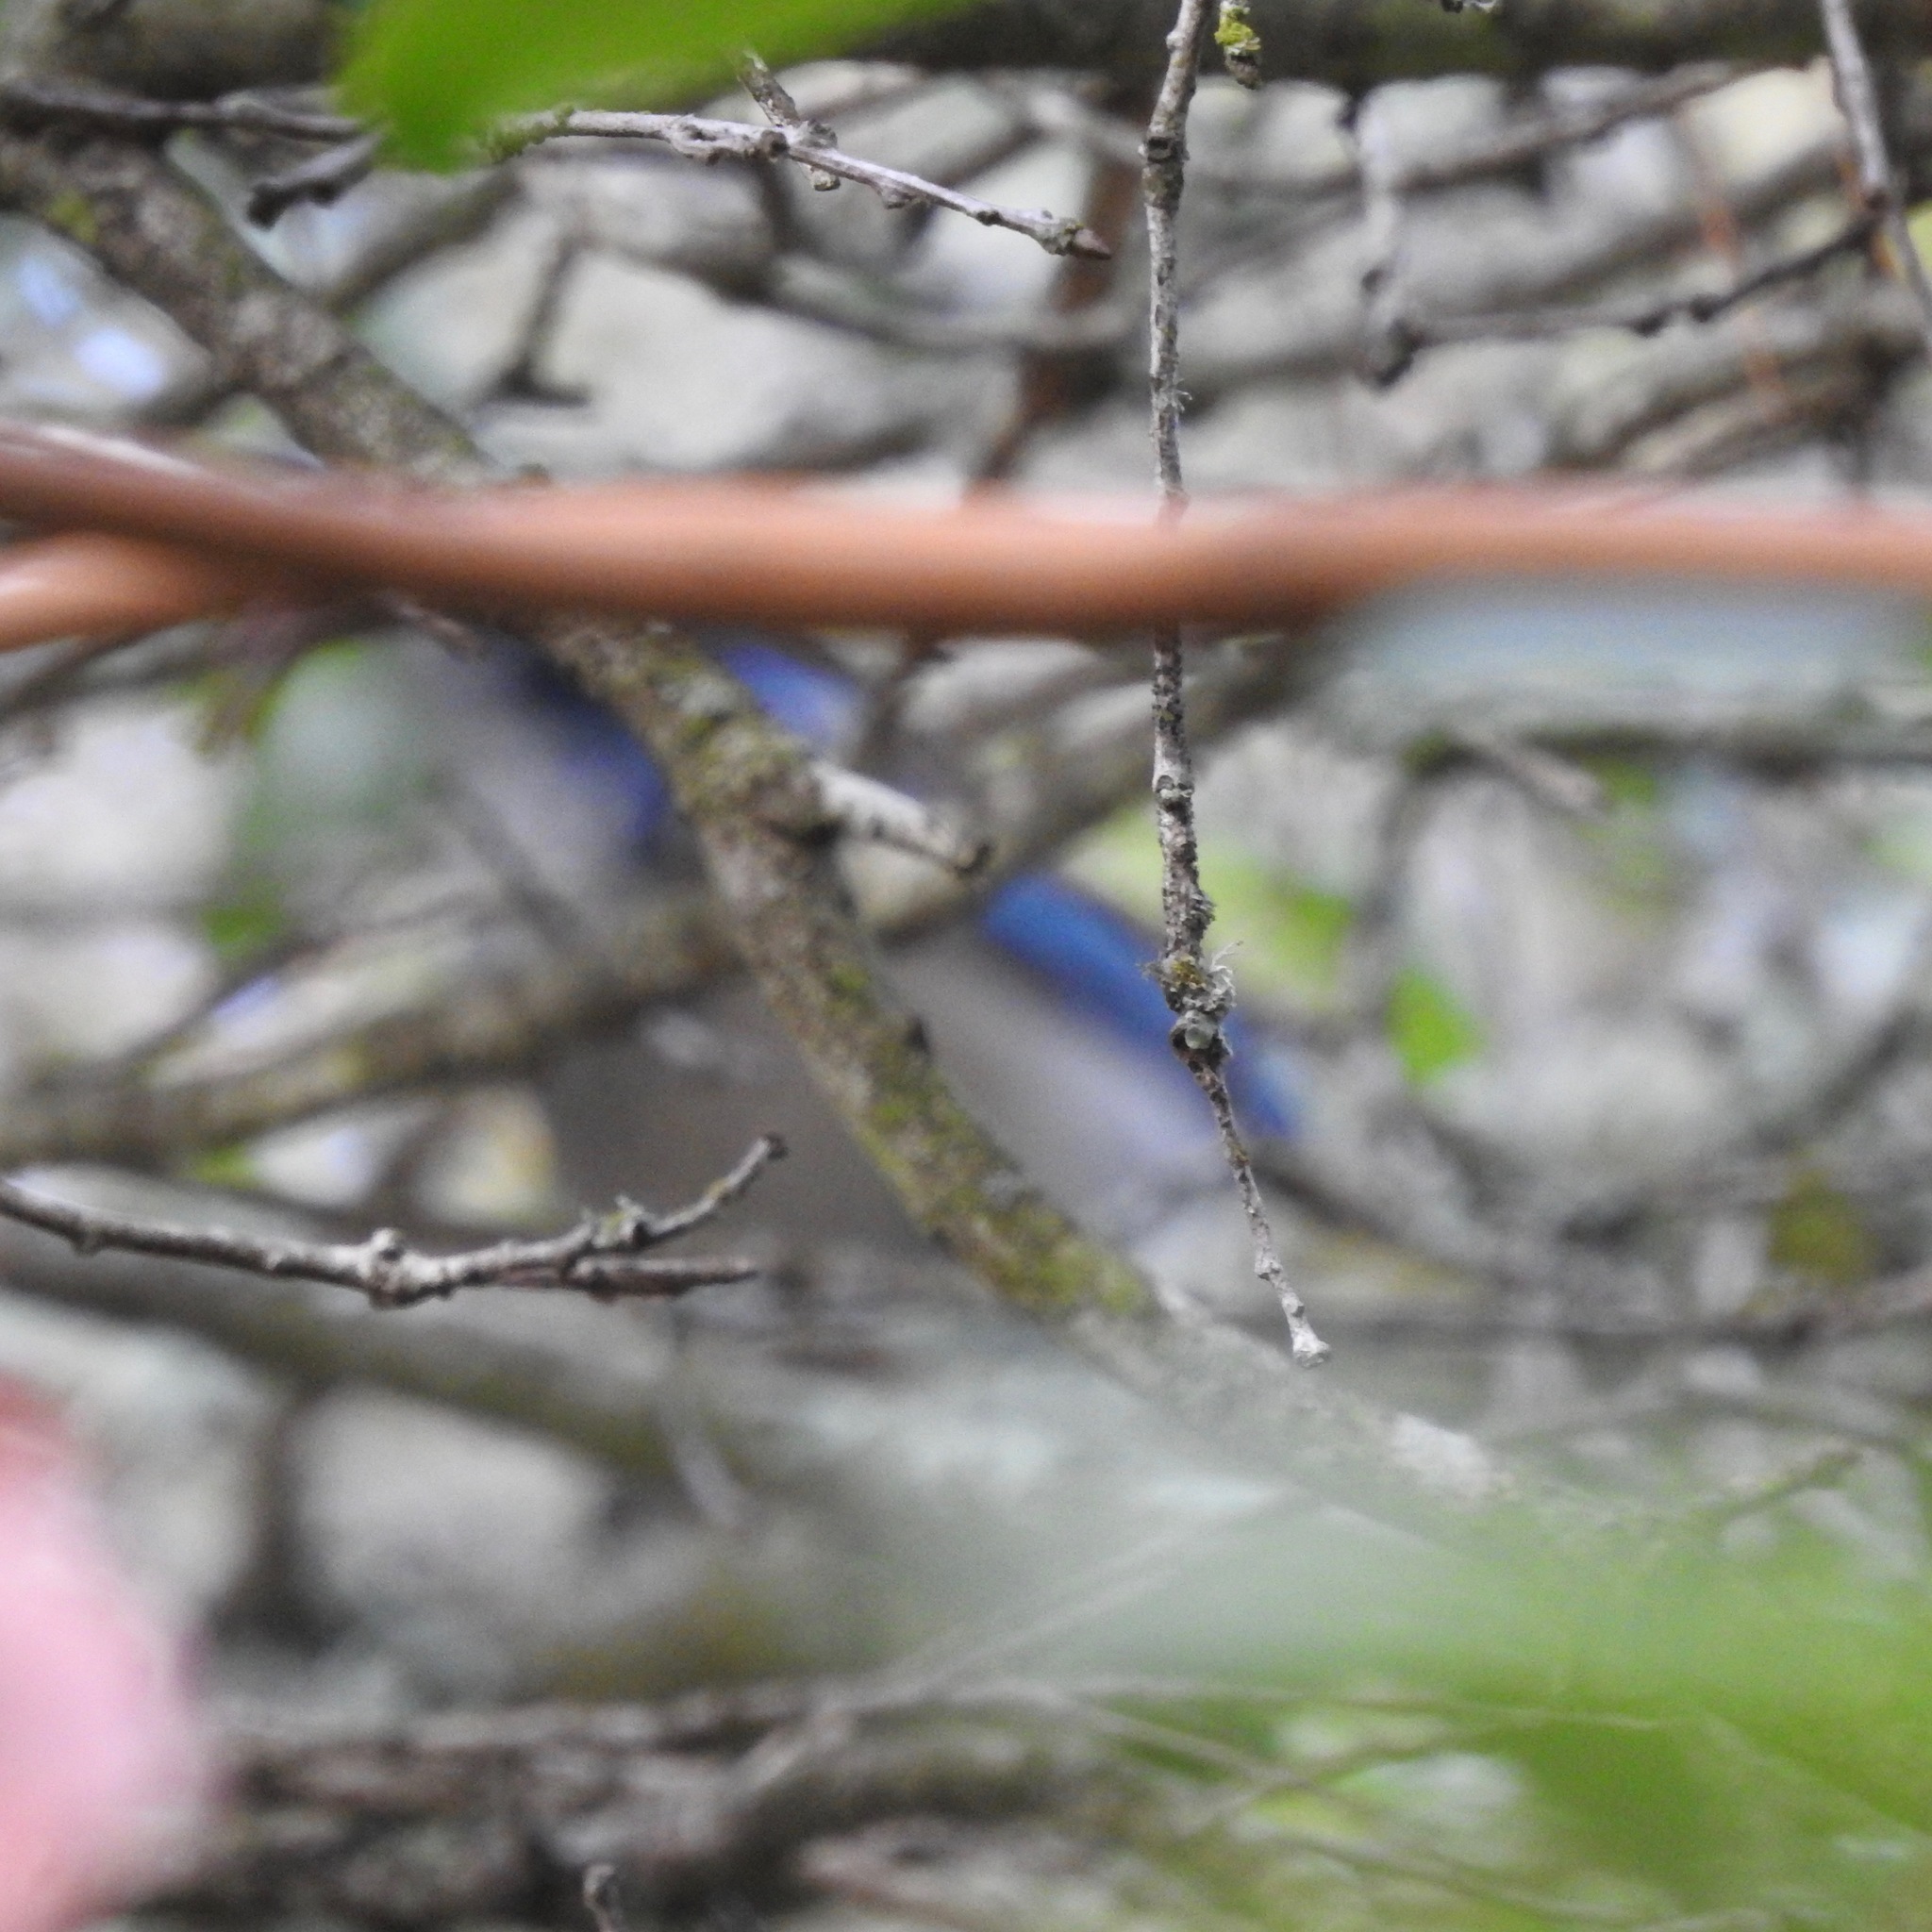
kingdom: Animalia
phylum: Chordata
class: Aves
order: Passeriformes
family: Corvidae
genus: Aphelocoma
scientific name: Aphelocoma californica
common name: California scrub-jay
